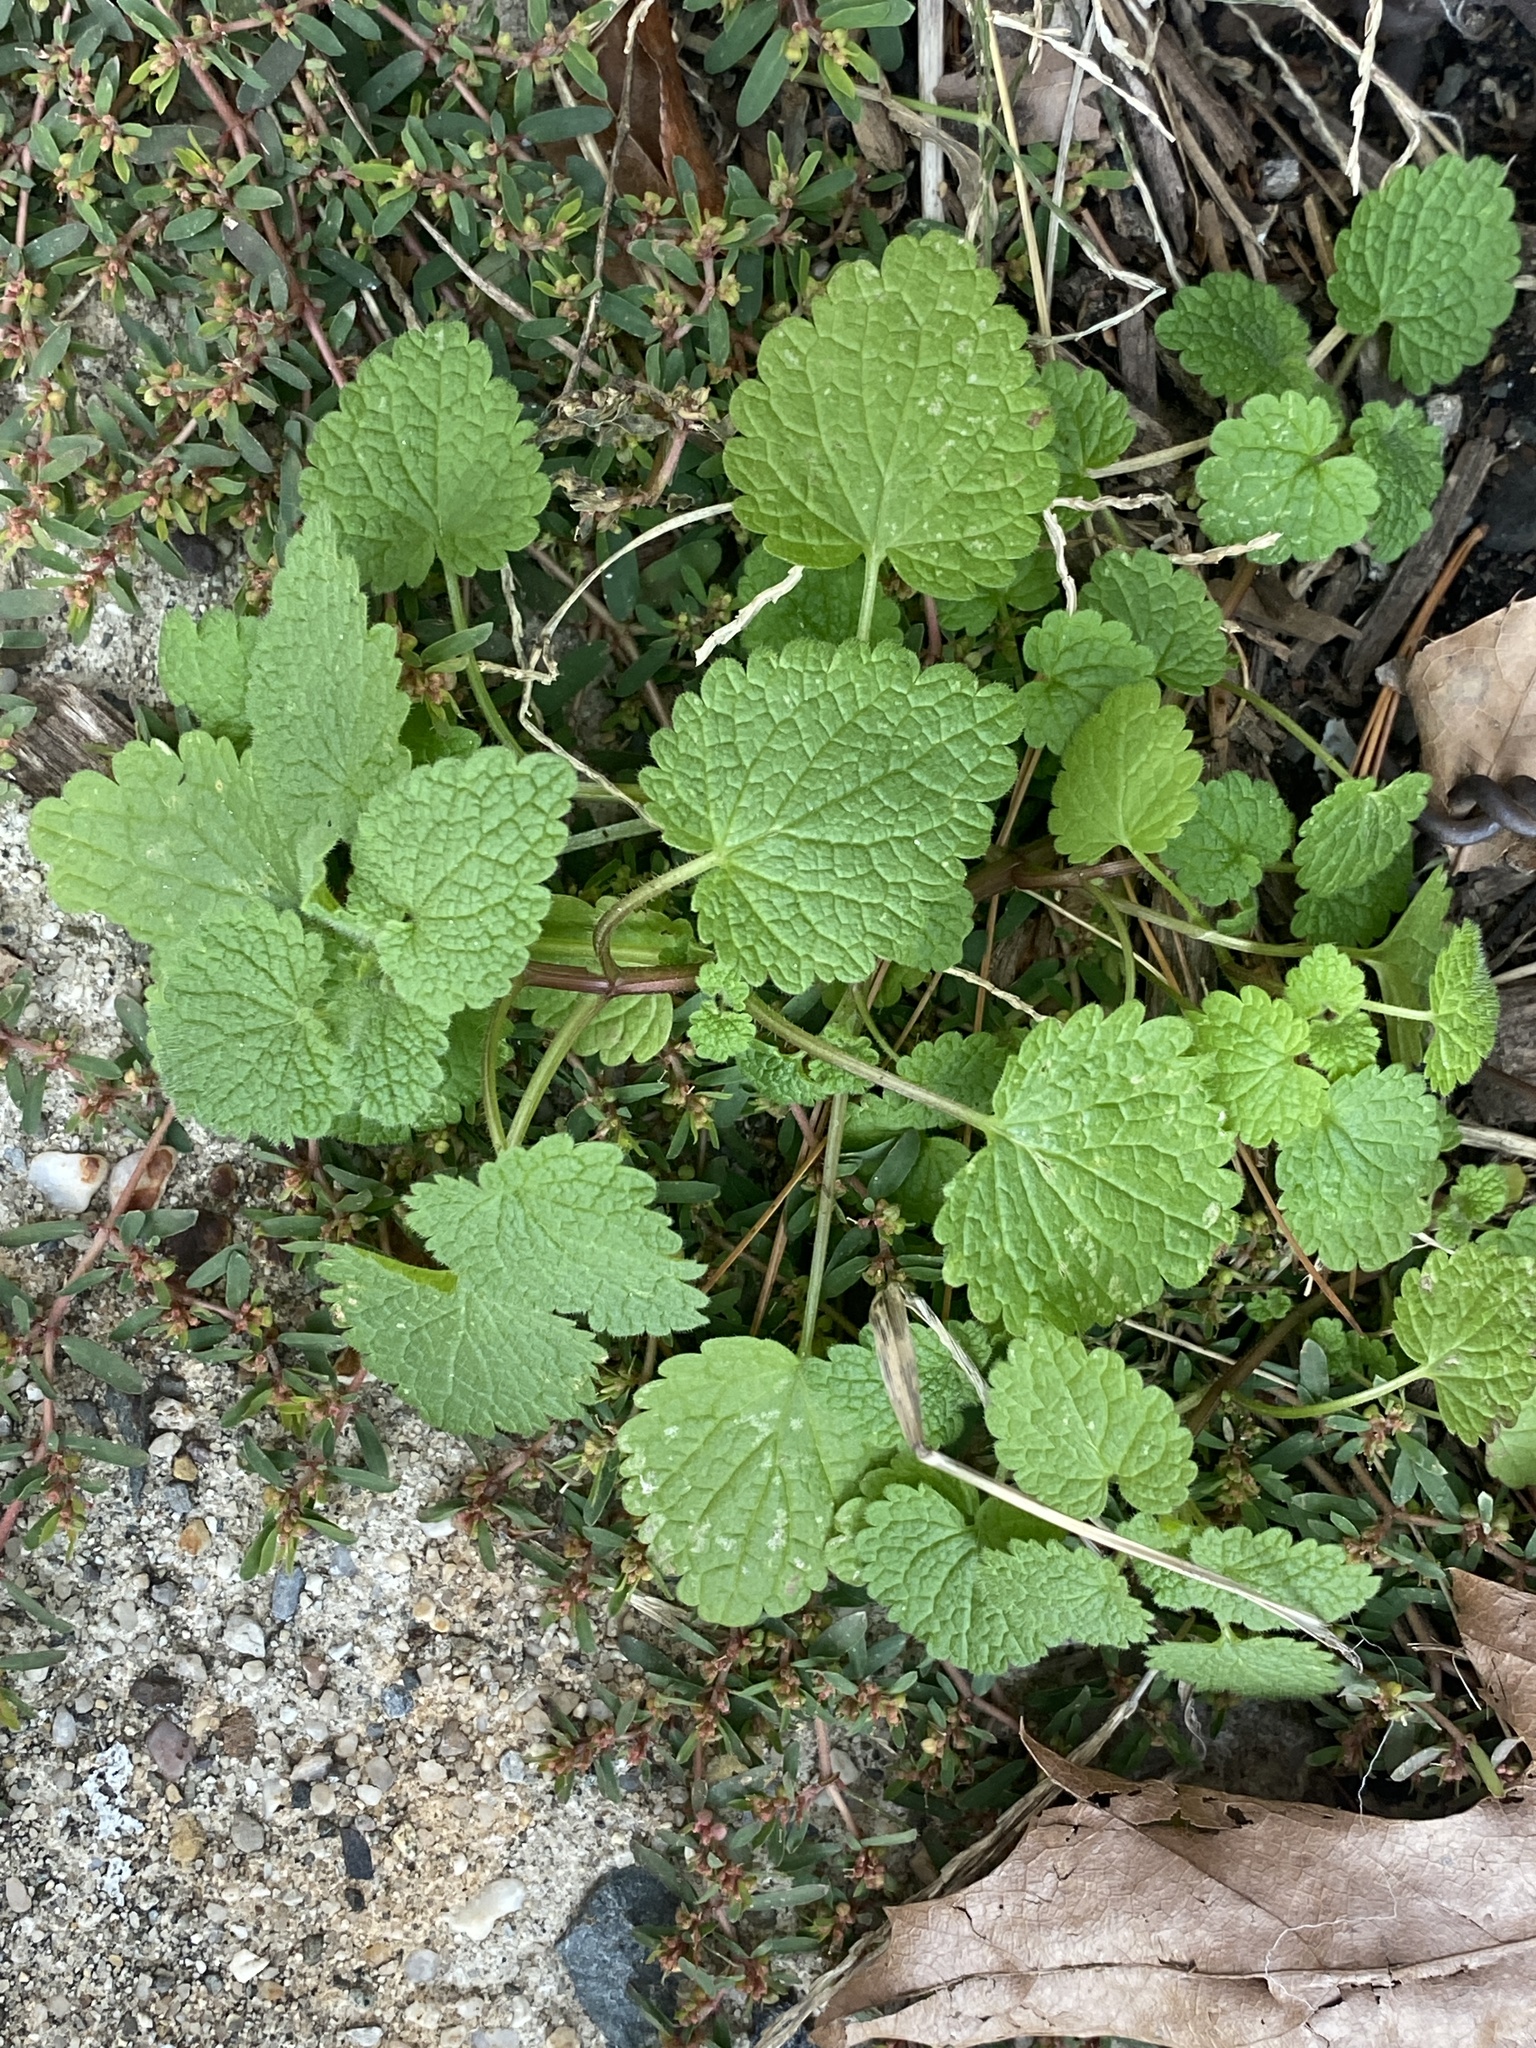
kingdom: Plantae
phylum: Tracheophyta
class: Magnoliopsida
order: Lamiales
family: Lamiaceae
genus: Lamium
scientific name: Lamium purpureum
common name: Red dead-nettle
